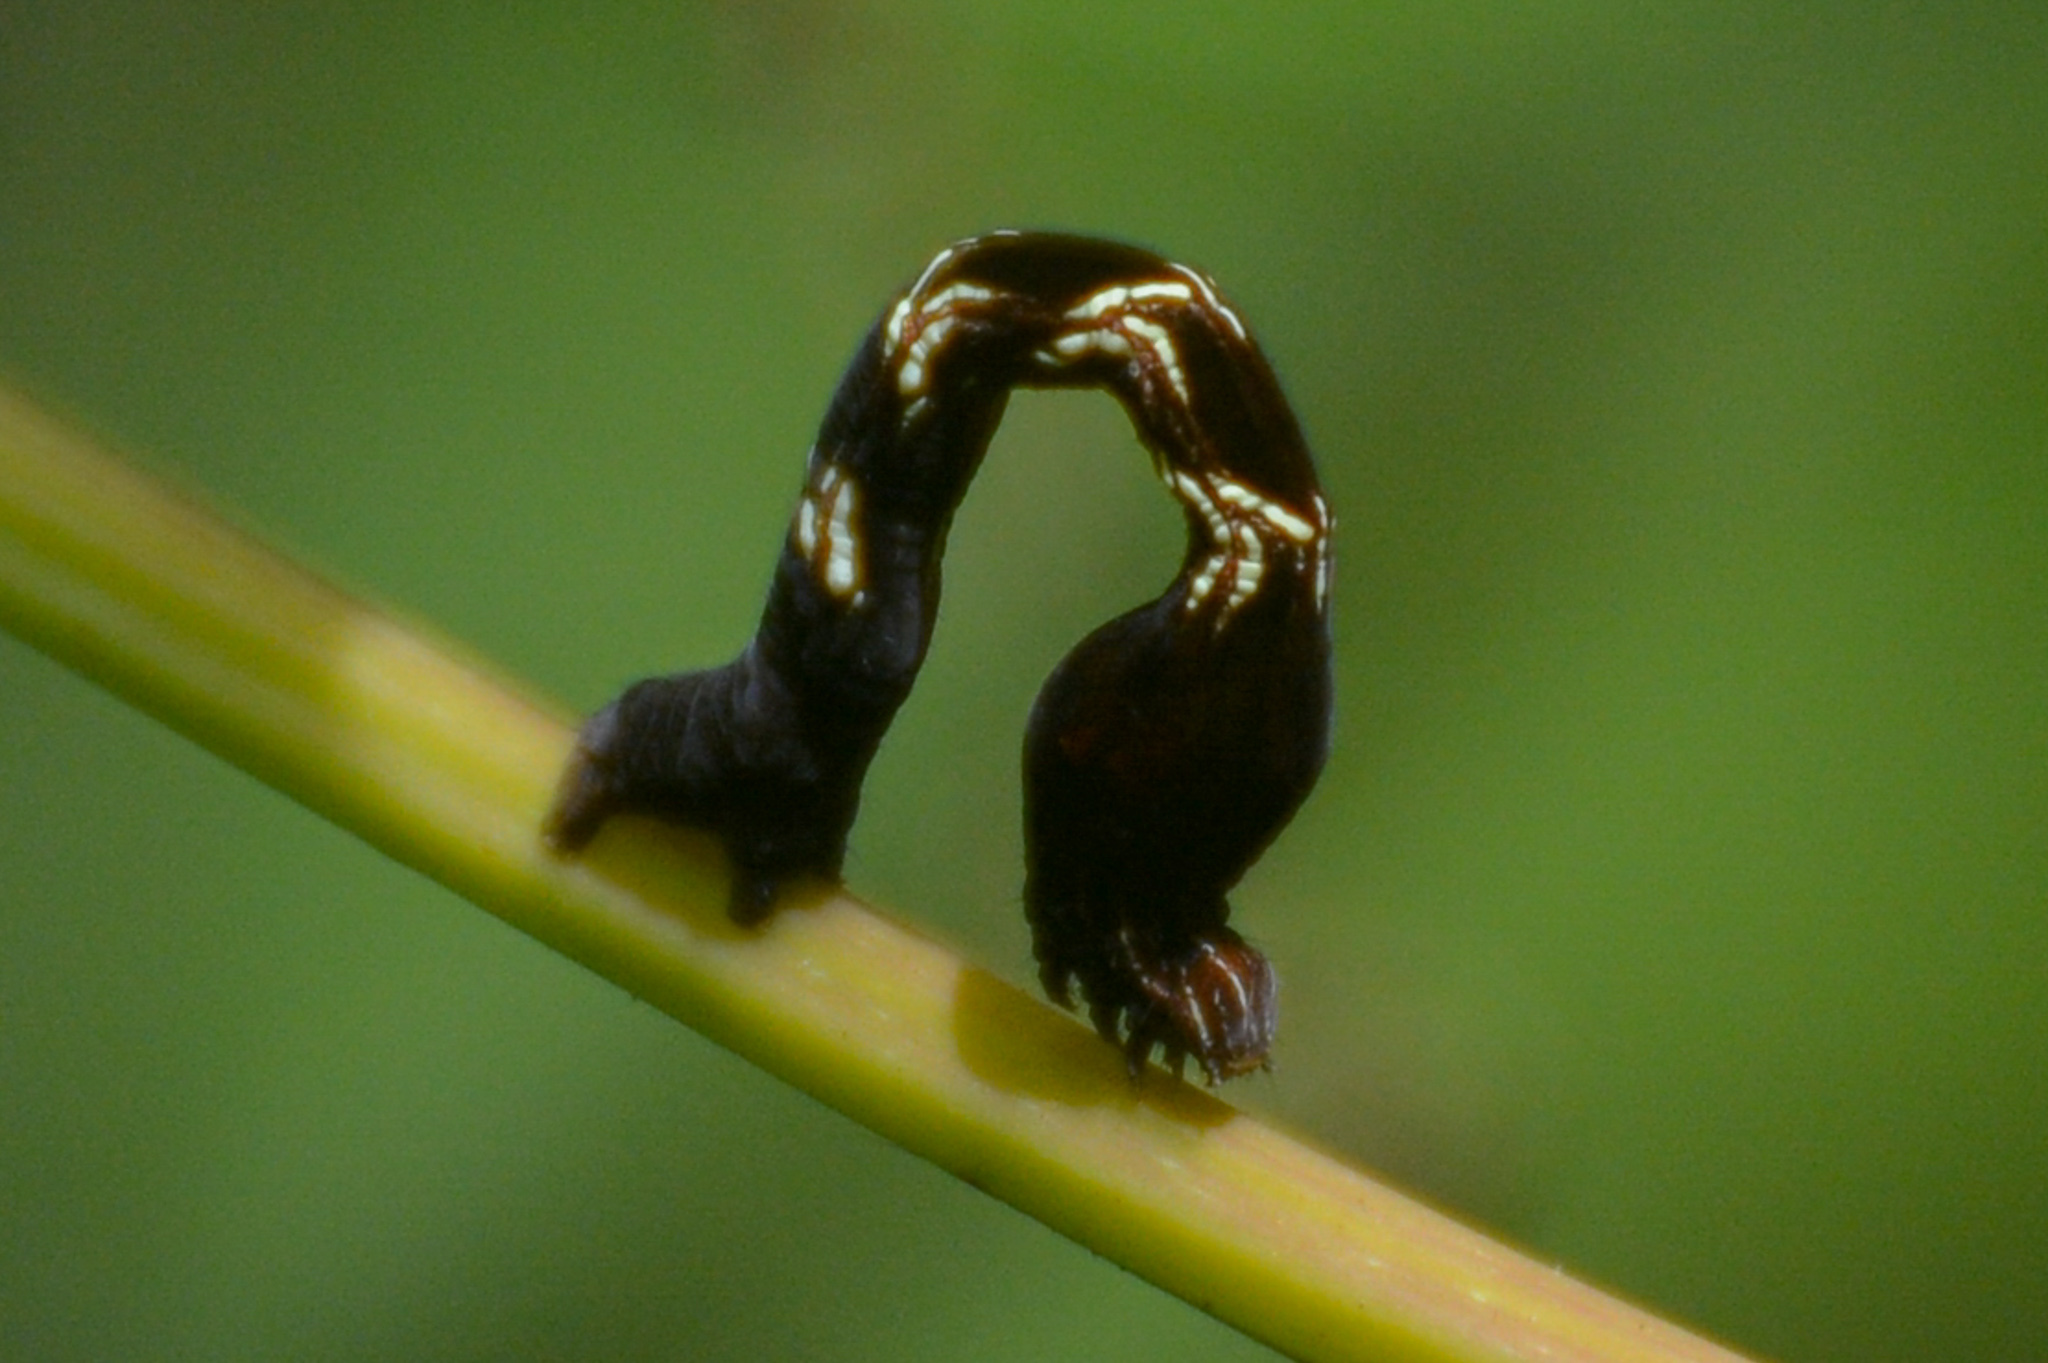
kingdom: Animalia
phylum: Arthropoda
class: Insecta
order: Lepidoptera
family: Geometridae
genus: Timandra
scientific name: Timandra amaturaria
